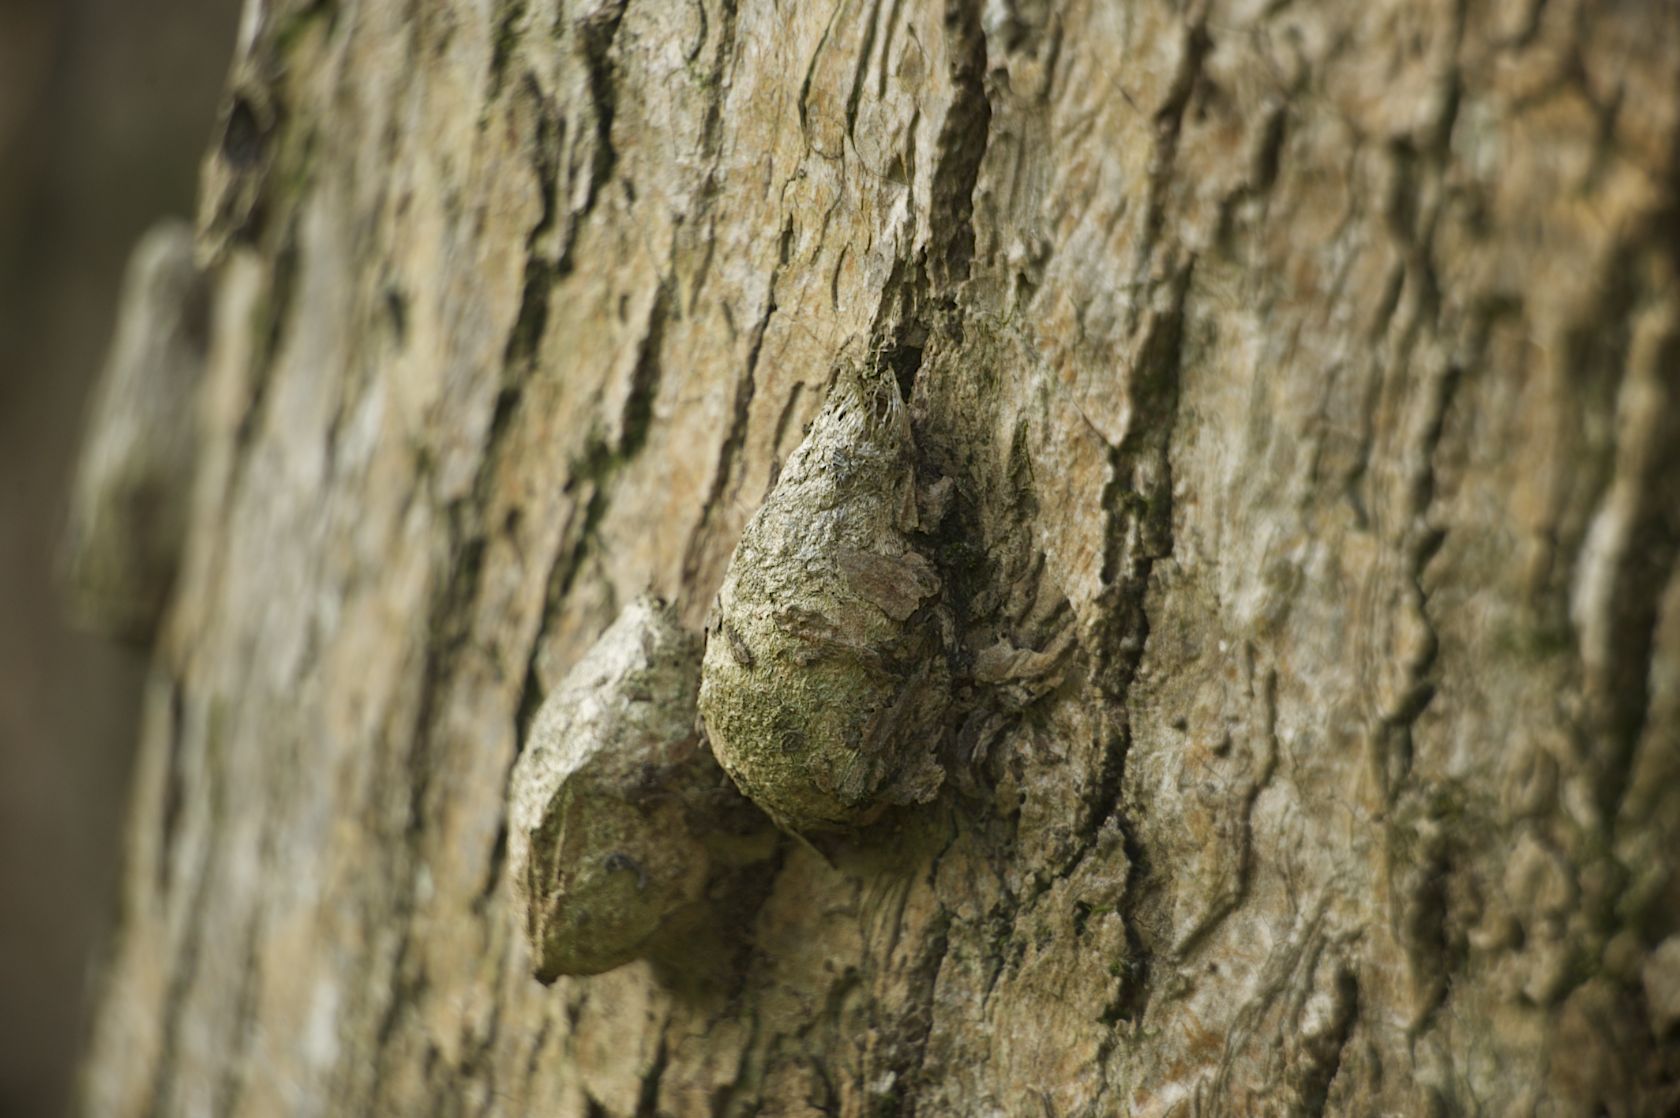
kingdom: Animalia
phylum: Arthropoda
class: Insecta
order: Lepidoptera
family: Saturniidae
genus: Saturnia
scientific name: Saturnia pyretorum
